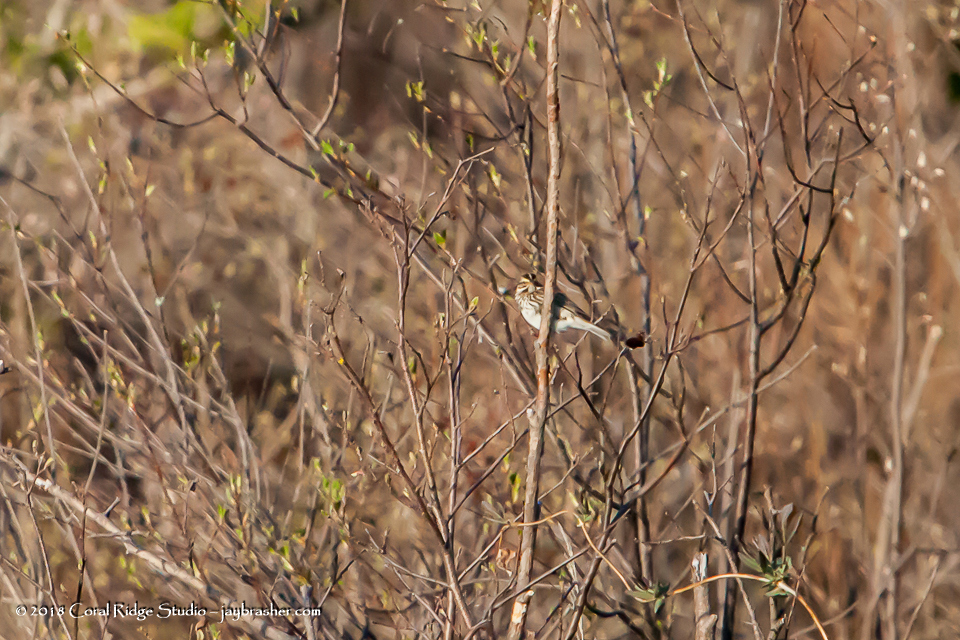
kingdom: Animalia
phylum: Chordata
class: Aves
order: Passeriformes
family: Passerellidae
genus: Passerculus
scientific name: Passerculus sandwichensis
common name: Savannah sparrow
